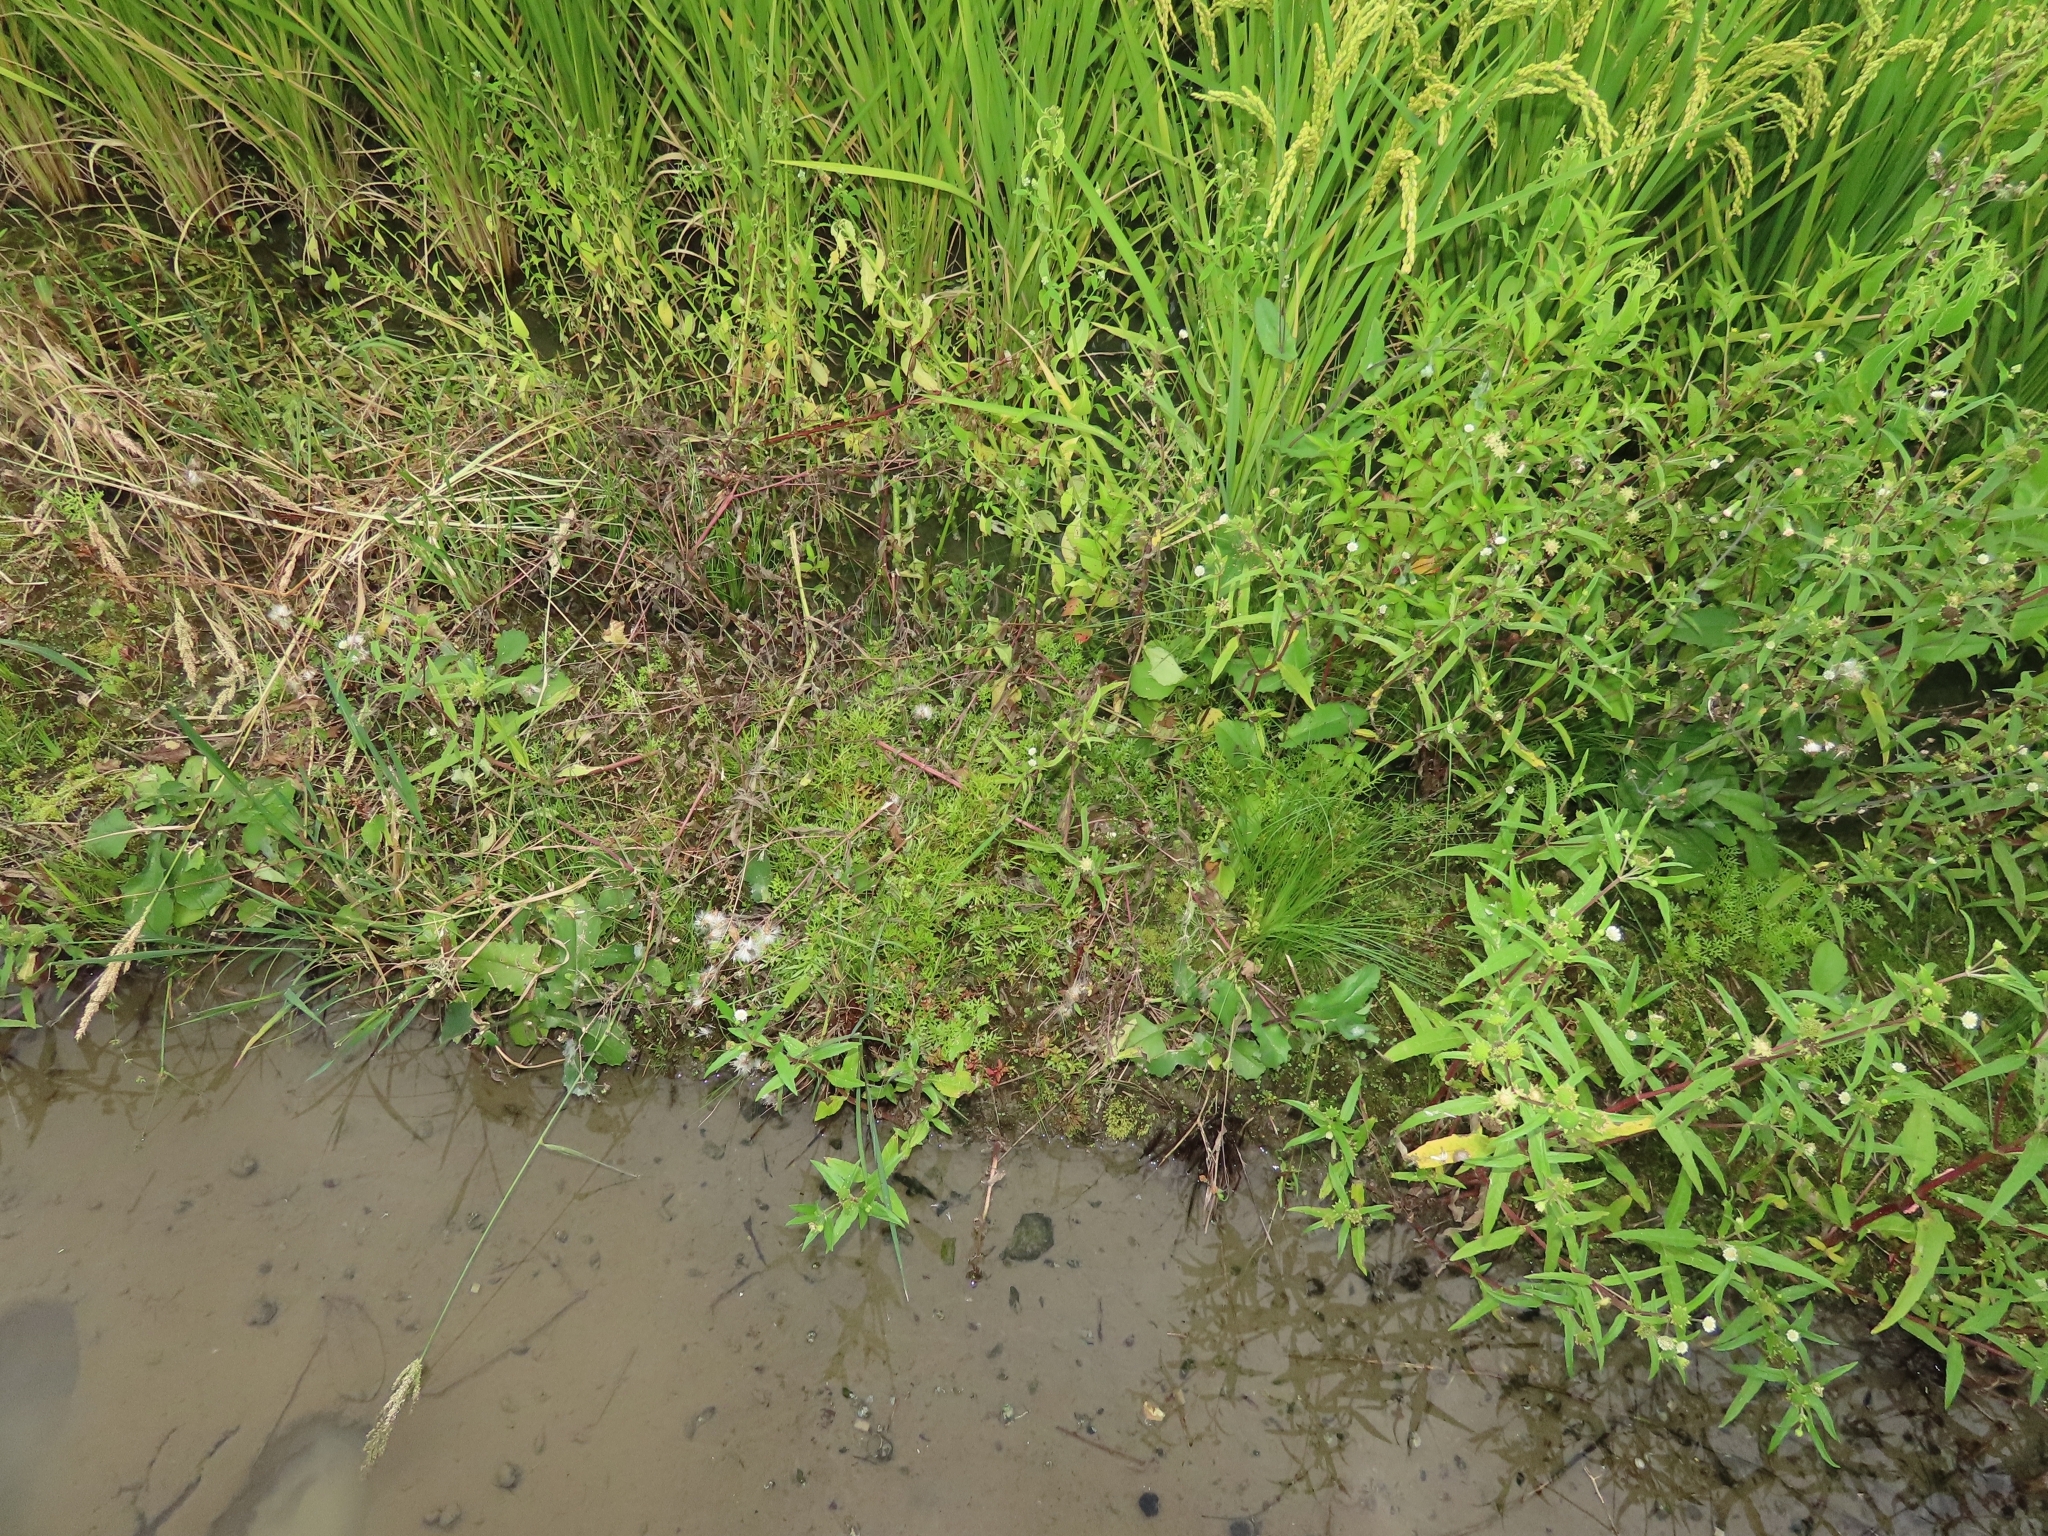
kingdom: Plantae
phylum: Tracheophyta
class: Liliopsida
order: Poales
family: Cyperaceae
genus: Fimbristylis
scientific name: Fimbristylis littoralis
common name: Fimbry
